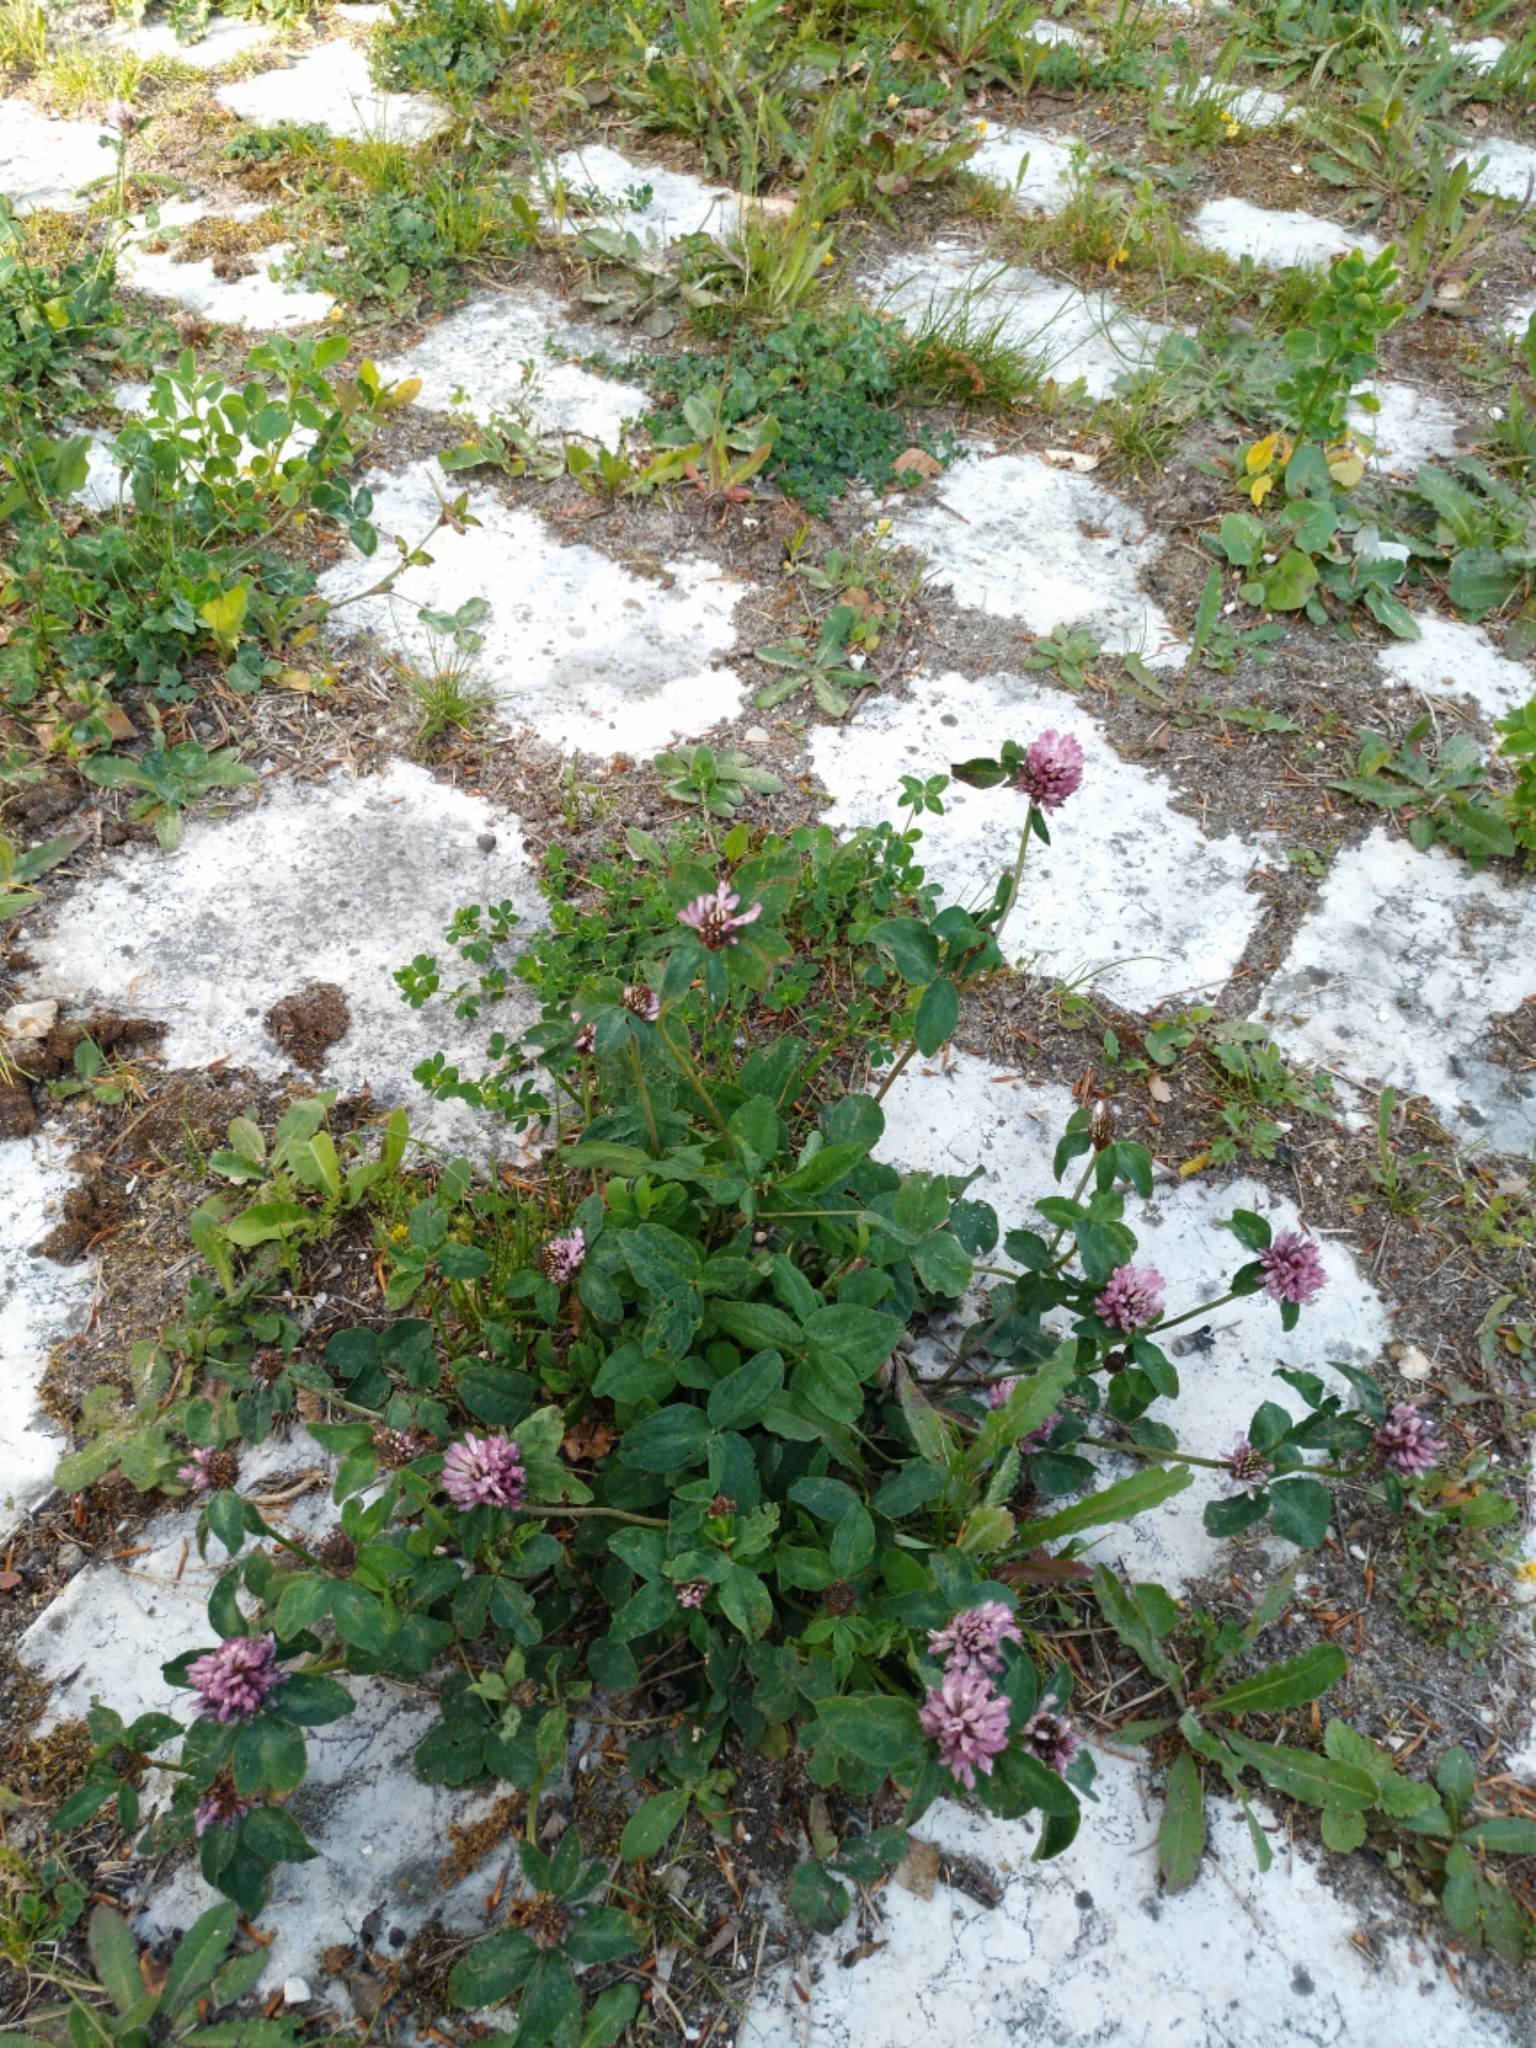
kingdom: Plantae
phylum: Tracheophyta
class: Magnoliopsida
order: Fabales
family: Fabaceae
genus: Trifolium
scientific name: Trifolium pratense
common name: Red clover
